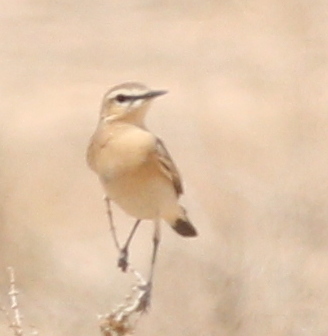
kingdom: Animalia
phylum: Chordata
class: Aves
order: Passeriformes
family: Muscicapidae
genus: Oenanthe
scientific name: Oenanthe isabellina
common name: Isabelline wheatear
